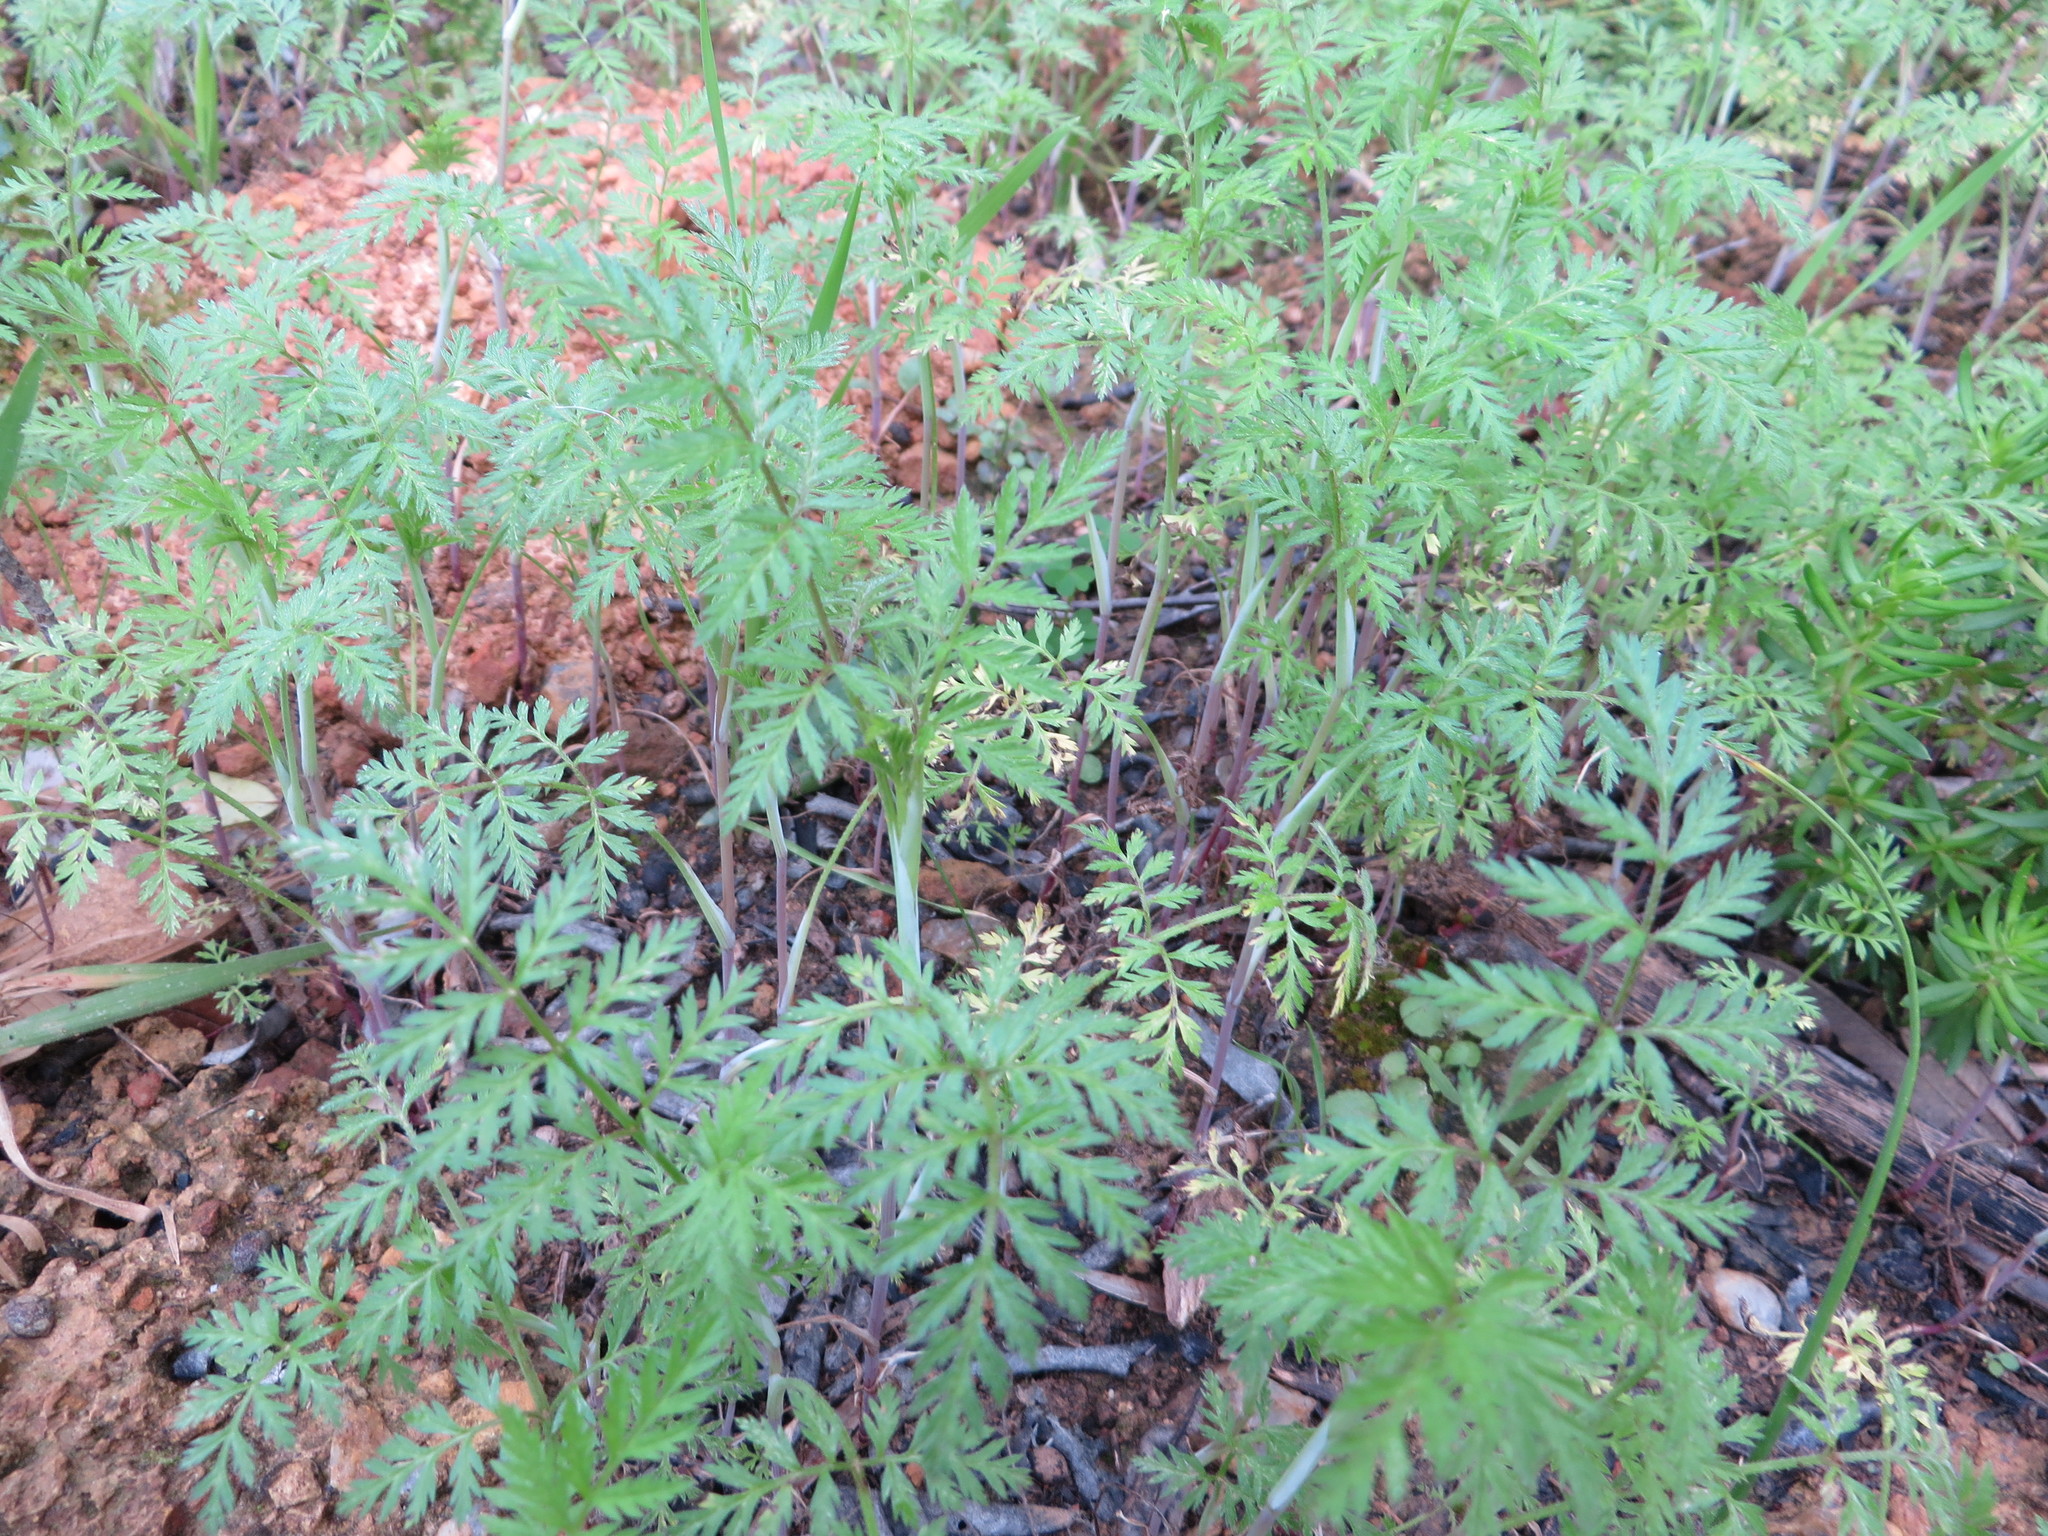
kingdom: Plantae
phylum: Tracheophyta
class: Magnoliopsida
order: Apiales
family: Apiaceae
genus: Torilis
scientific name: Torilis arvensis
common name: Spreading hedge-parsley
